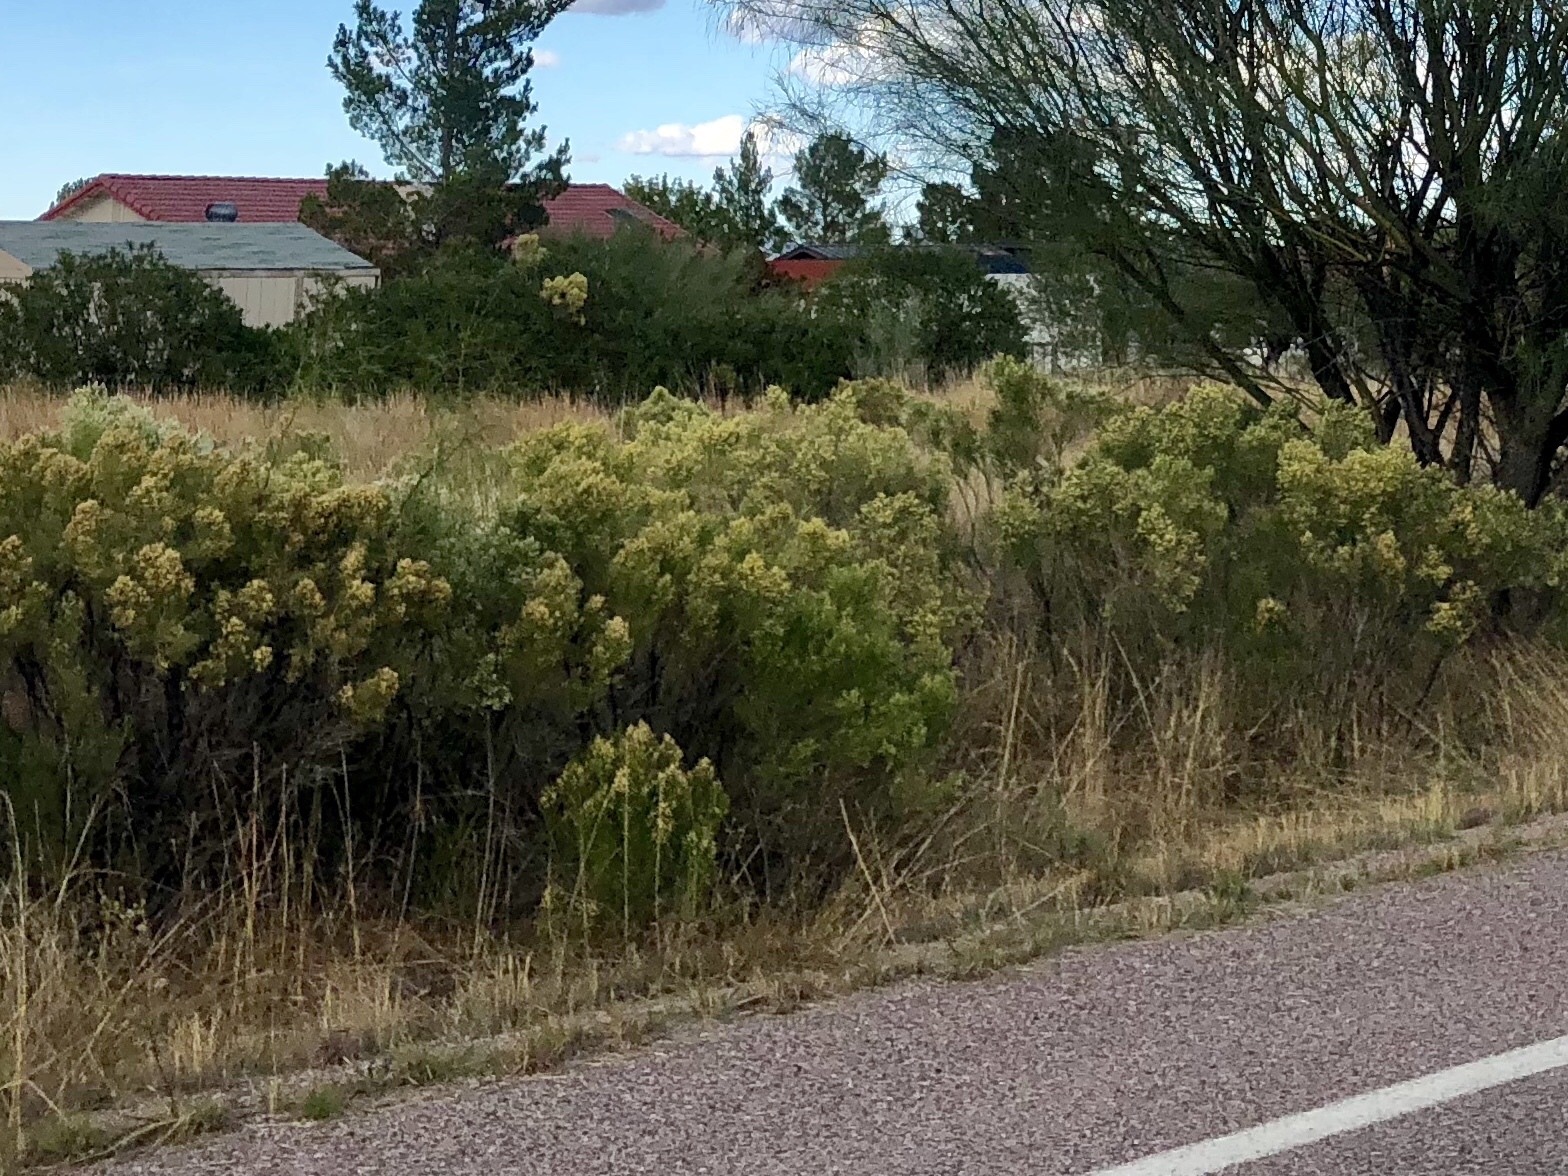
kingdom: Plantae
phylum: Tracheophyta
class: Magnoliopsida
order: Asterales
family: Asteraceae
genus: Baccharis
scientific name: Baccharis sarothroides
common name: Desert-broom
